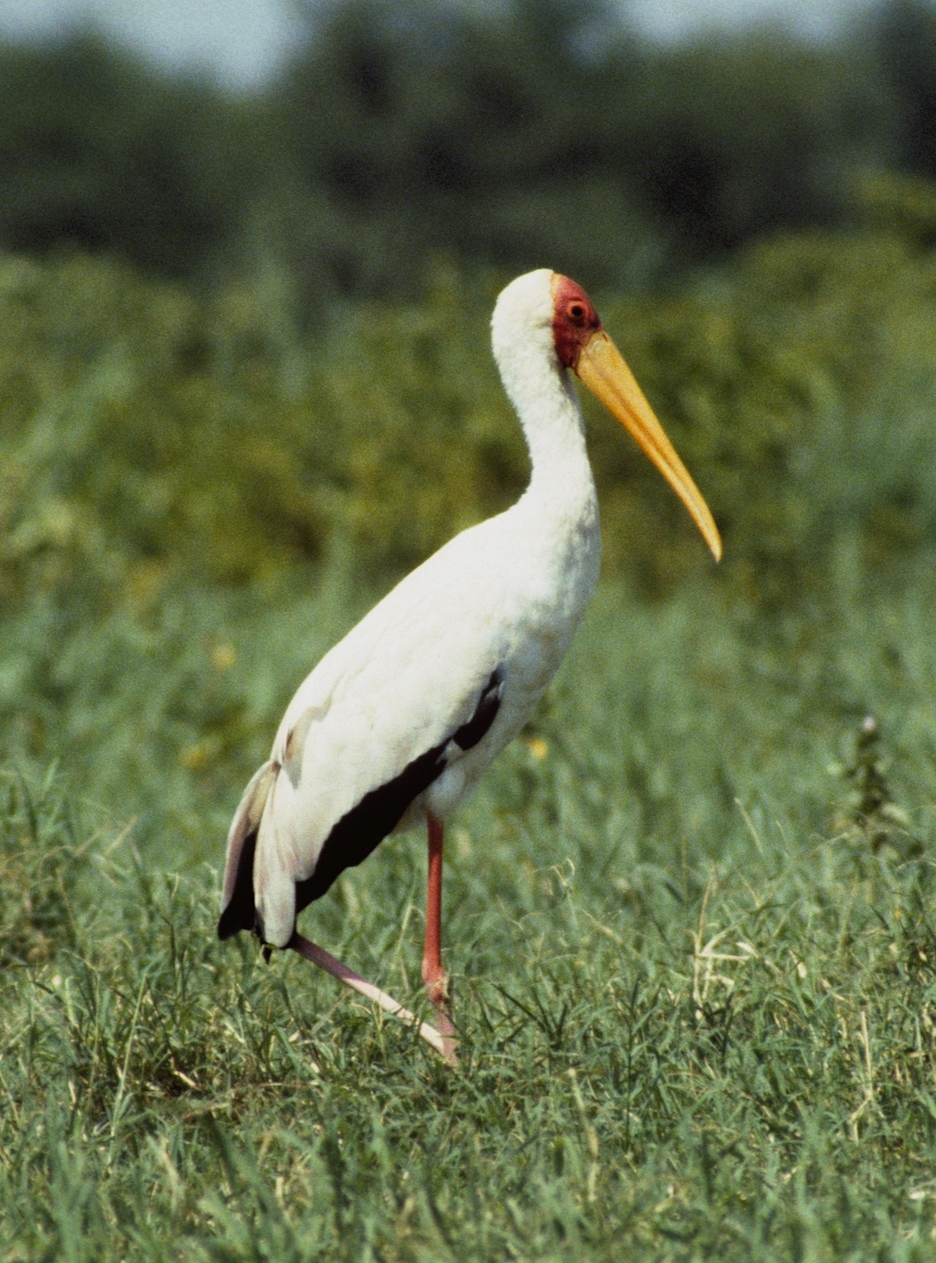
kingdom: Animalia
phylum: Chordata
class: Aves
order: Ciconiiformes
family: Ciconiidae
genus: Mycteria
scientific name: Mycteria ibis
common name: Yellow-billed stork
